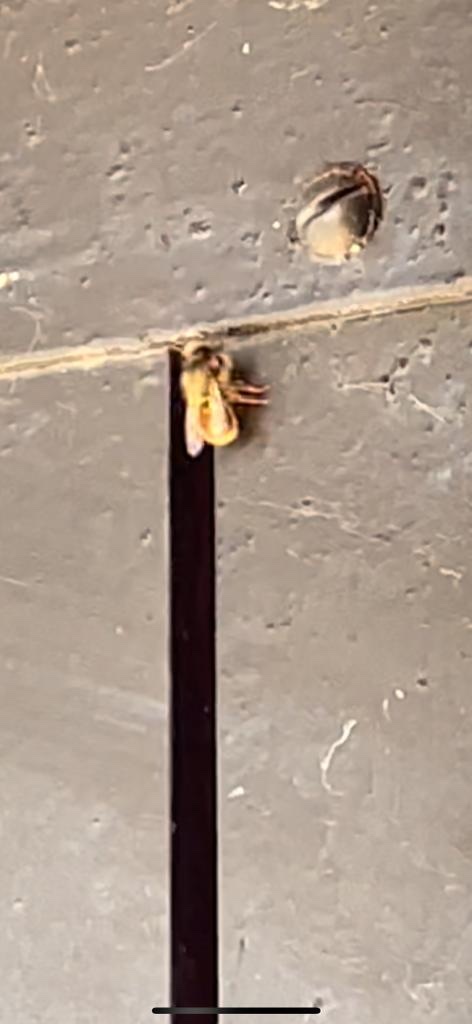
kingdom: Animalia
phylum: Arthropoda
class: Insecta
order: Hymenoptera
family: Megachilidae
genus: Osmia
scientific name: Osmia bicornis
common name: Red mason bee
